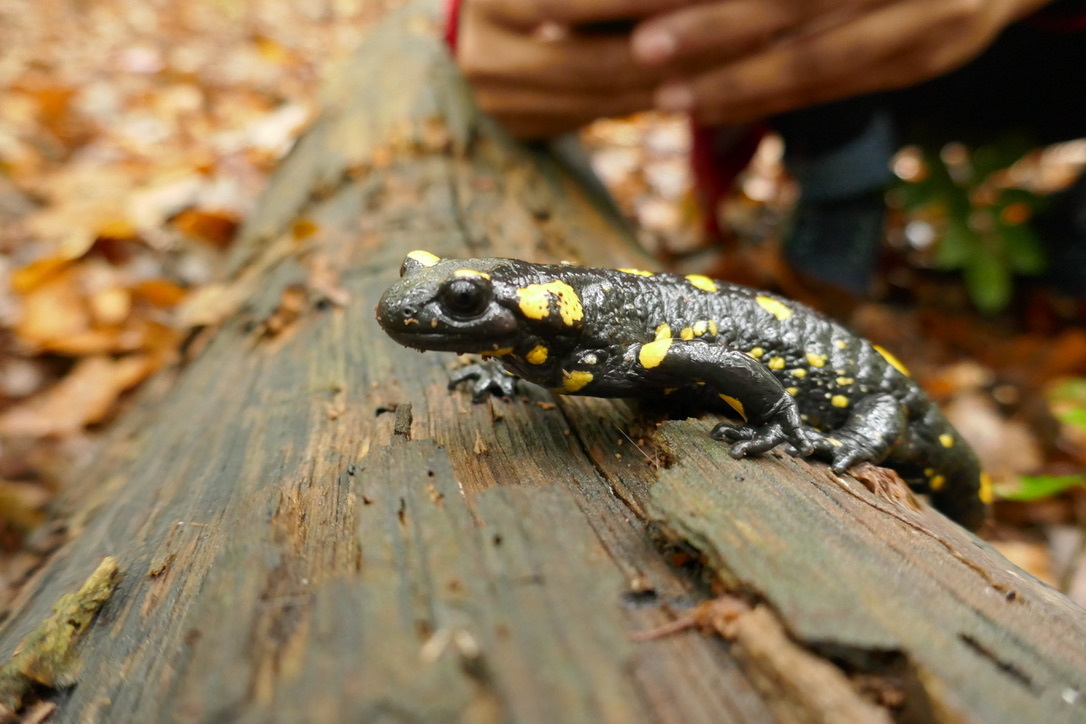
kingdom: Animalia
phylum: Chordata
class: Amphibia
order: Caudata
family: Salamandridae
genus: Salamandra
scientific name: Salamandra salamandra
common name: Fire salamander
